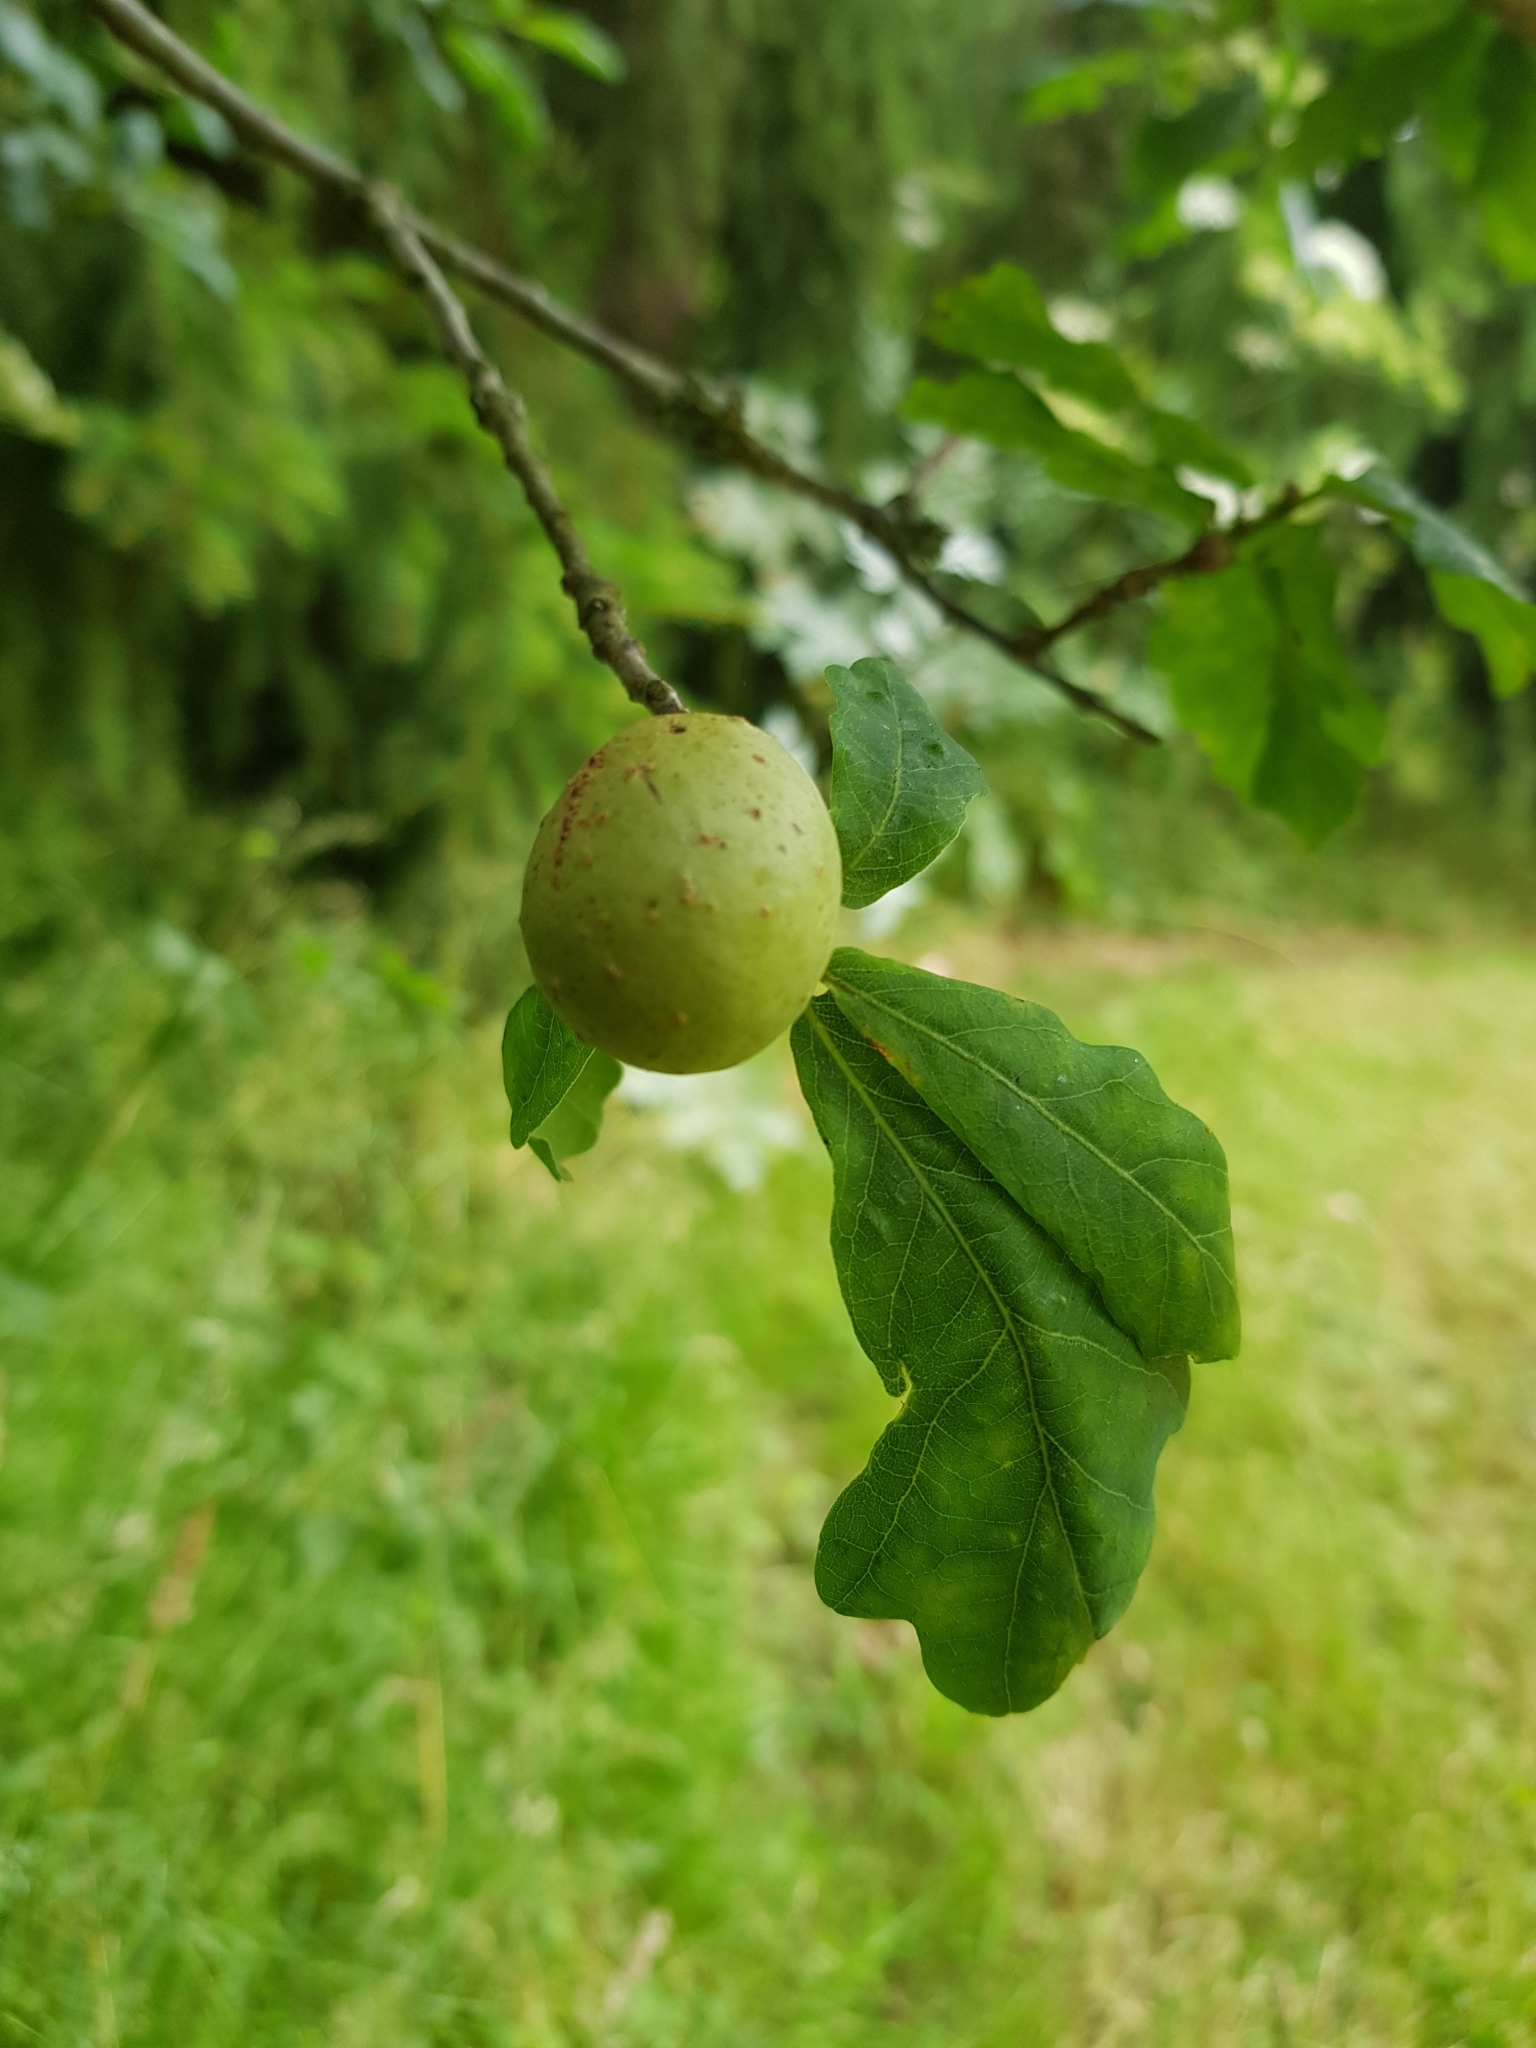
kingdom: Animalia
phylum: Arthropoda
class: Insecta
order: Hymenoptera
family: Cynipidae
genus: Andricus
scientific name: Andricus kollari
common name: Marble gall
